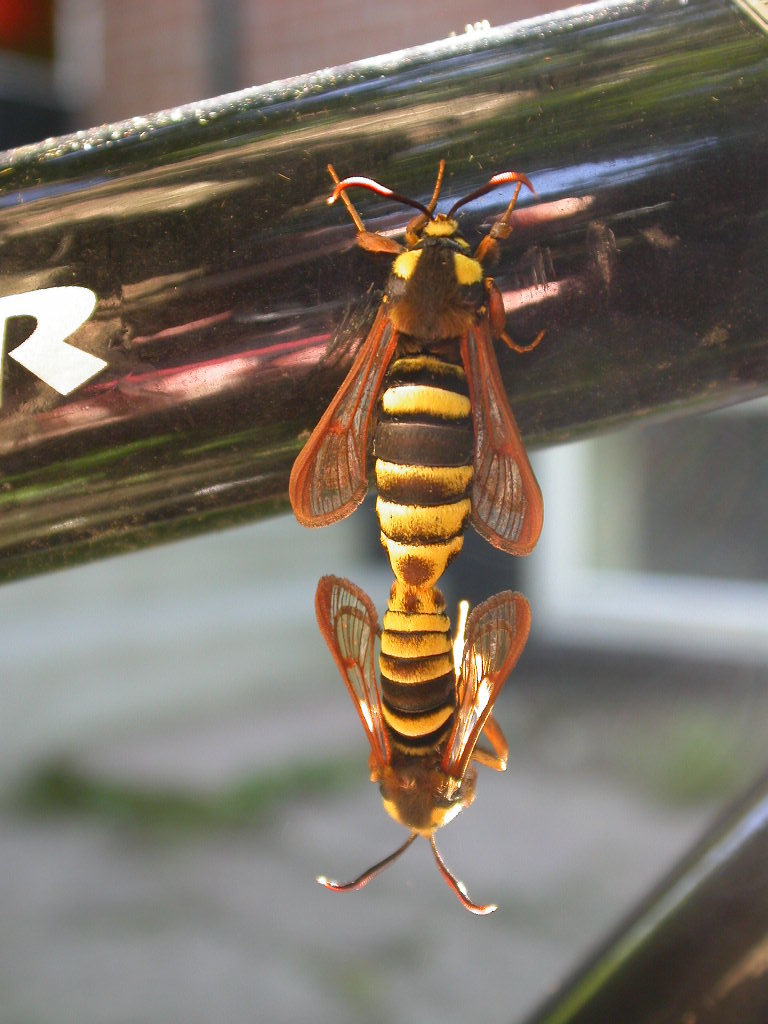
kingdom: Animalia
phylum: Arthropoda
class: Insecta
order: Lepidoptera
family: Sesiidae
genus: Sesia
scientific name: Sesia apiformis
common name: Hornet moth
